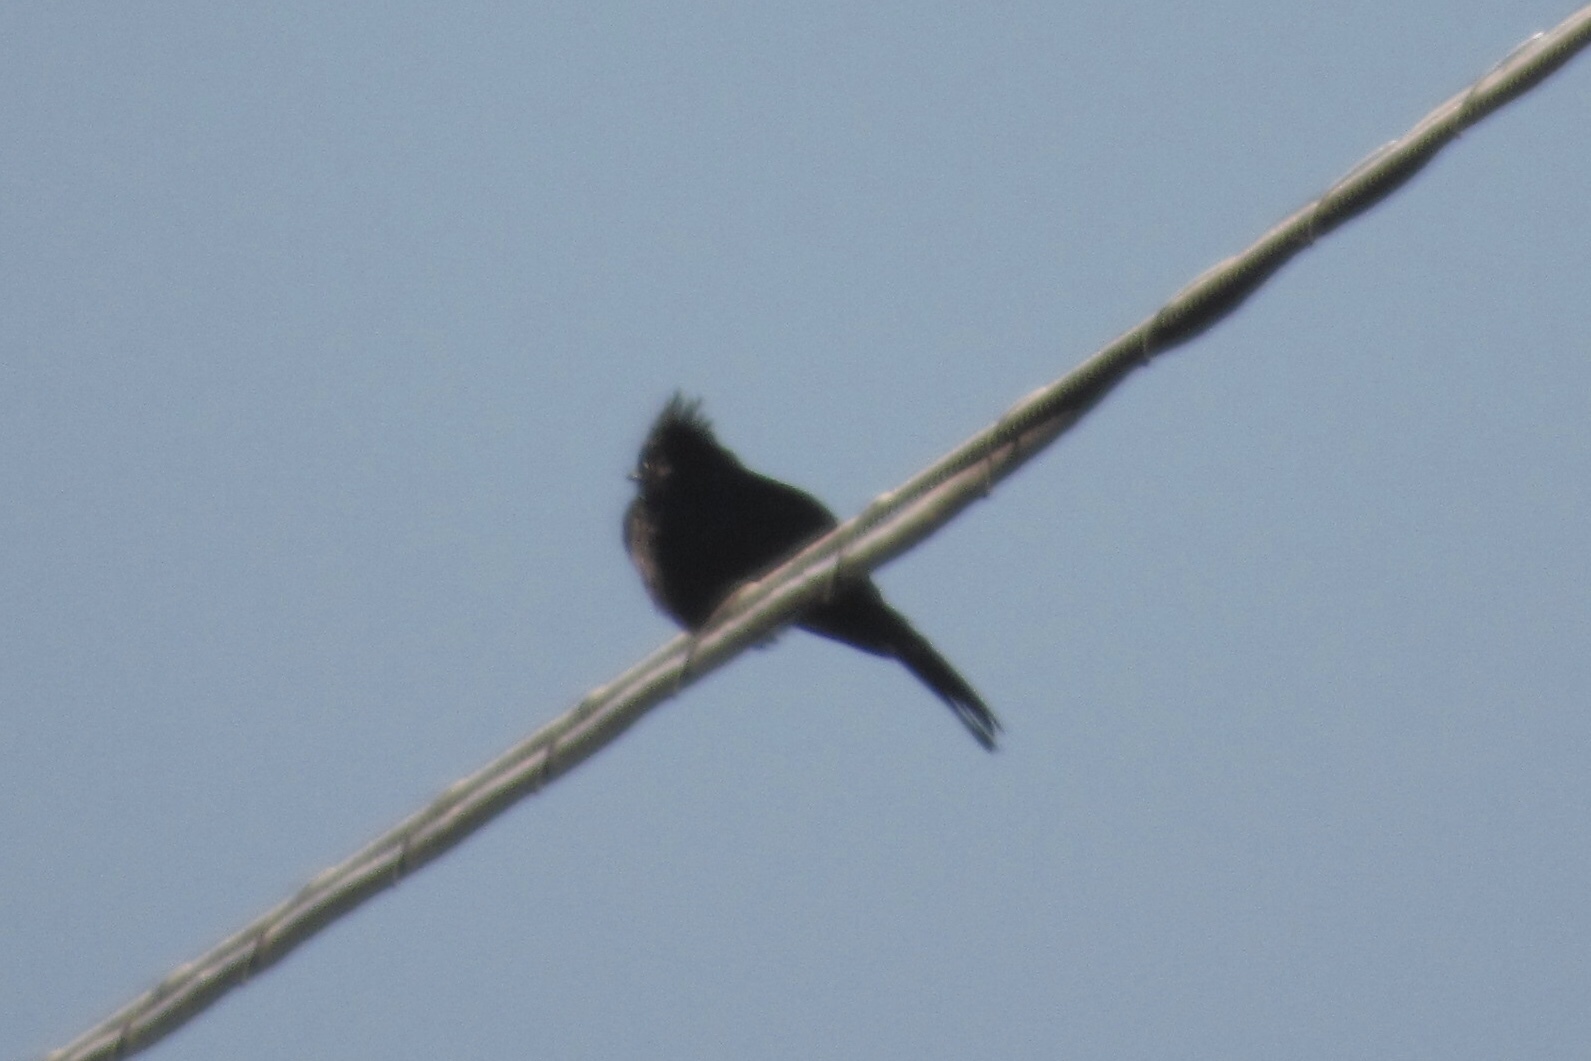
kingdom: Animalia
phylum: Chordata
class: Aves
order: Passeriformes
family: Ptilogonatidae
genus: Phainopepla
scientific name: Phainopepla nitens
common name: Phainopepla
